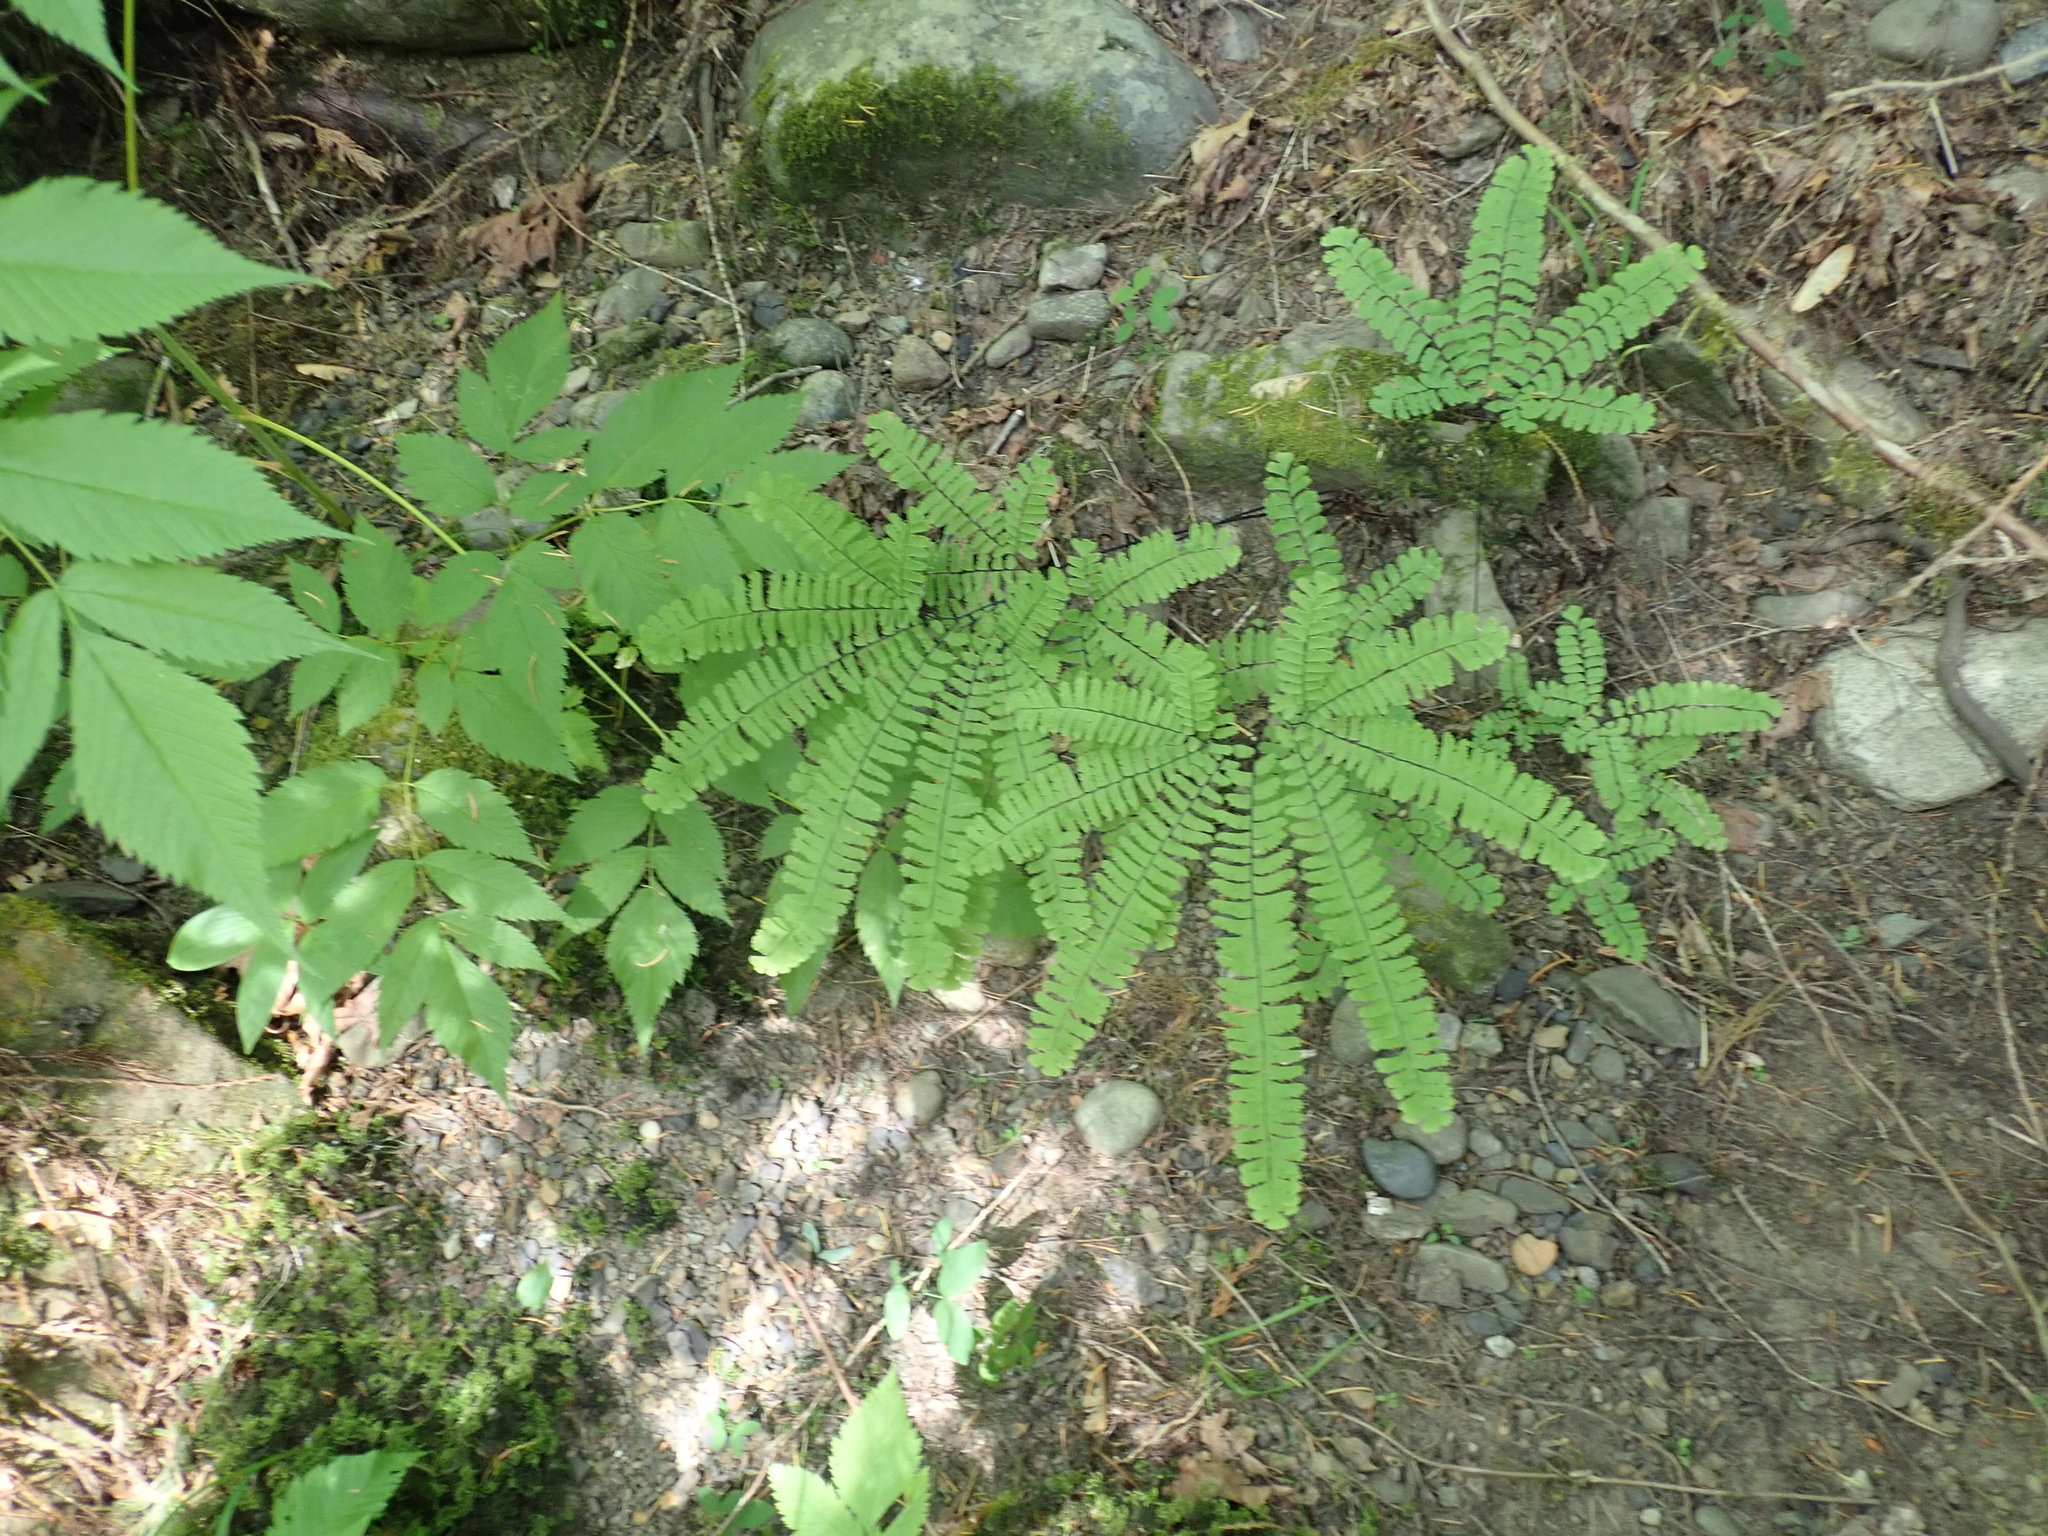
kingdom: Plantae
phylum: Tracheophyta
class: Polypodiopsida
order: Polypodiales
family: Pteridaceae
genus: Adiantum
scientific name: Adiantum aleuticum
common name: Aleutian maidenhair fern
